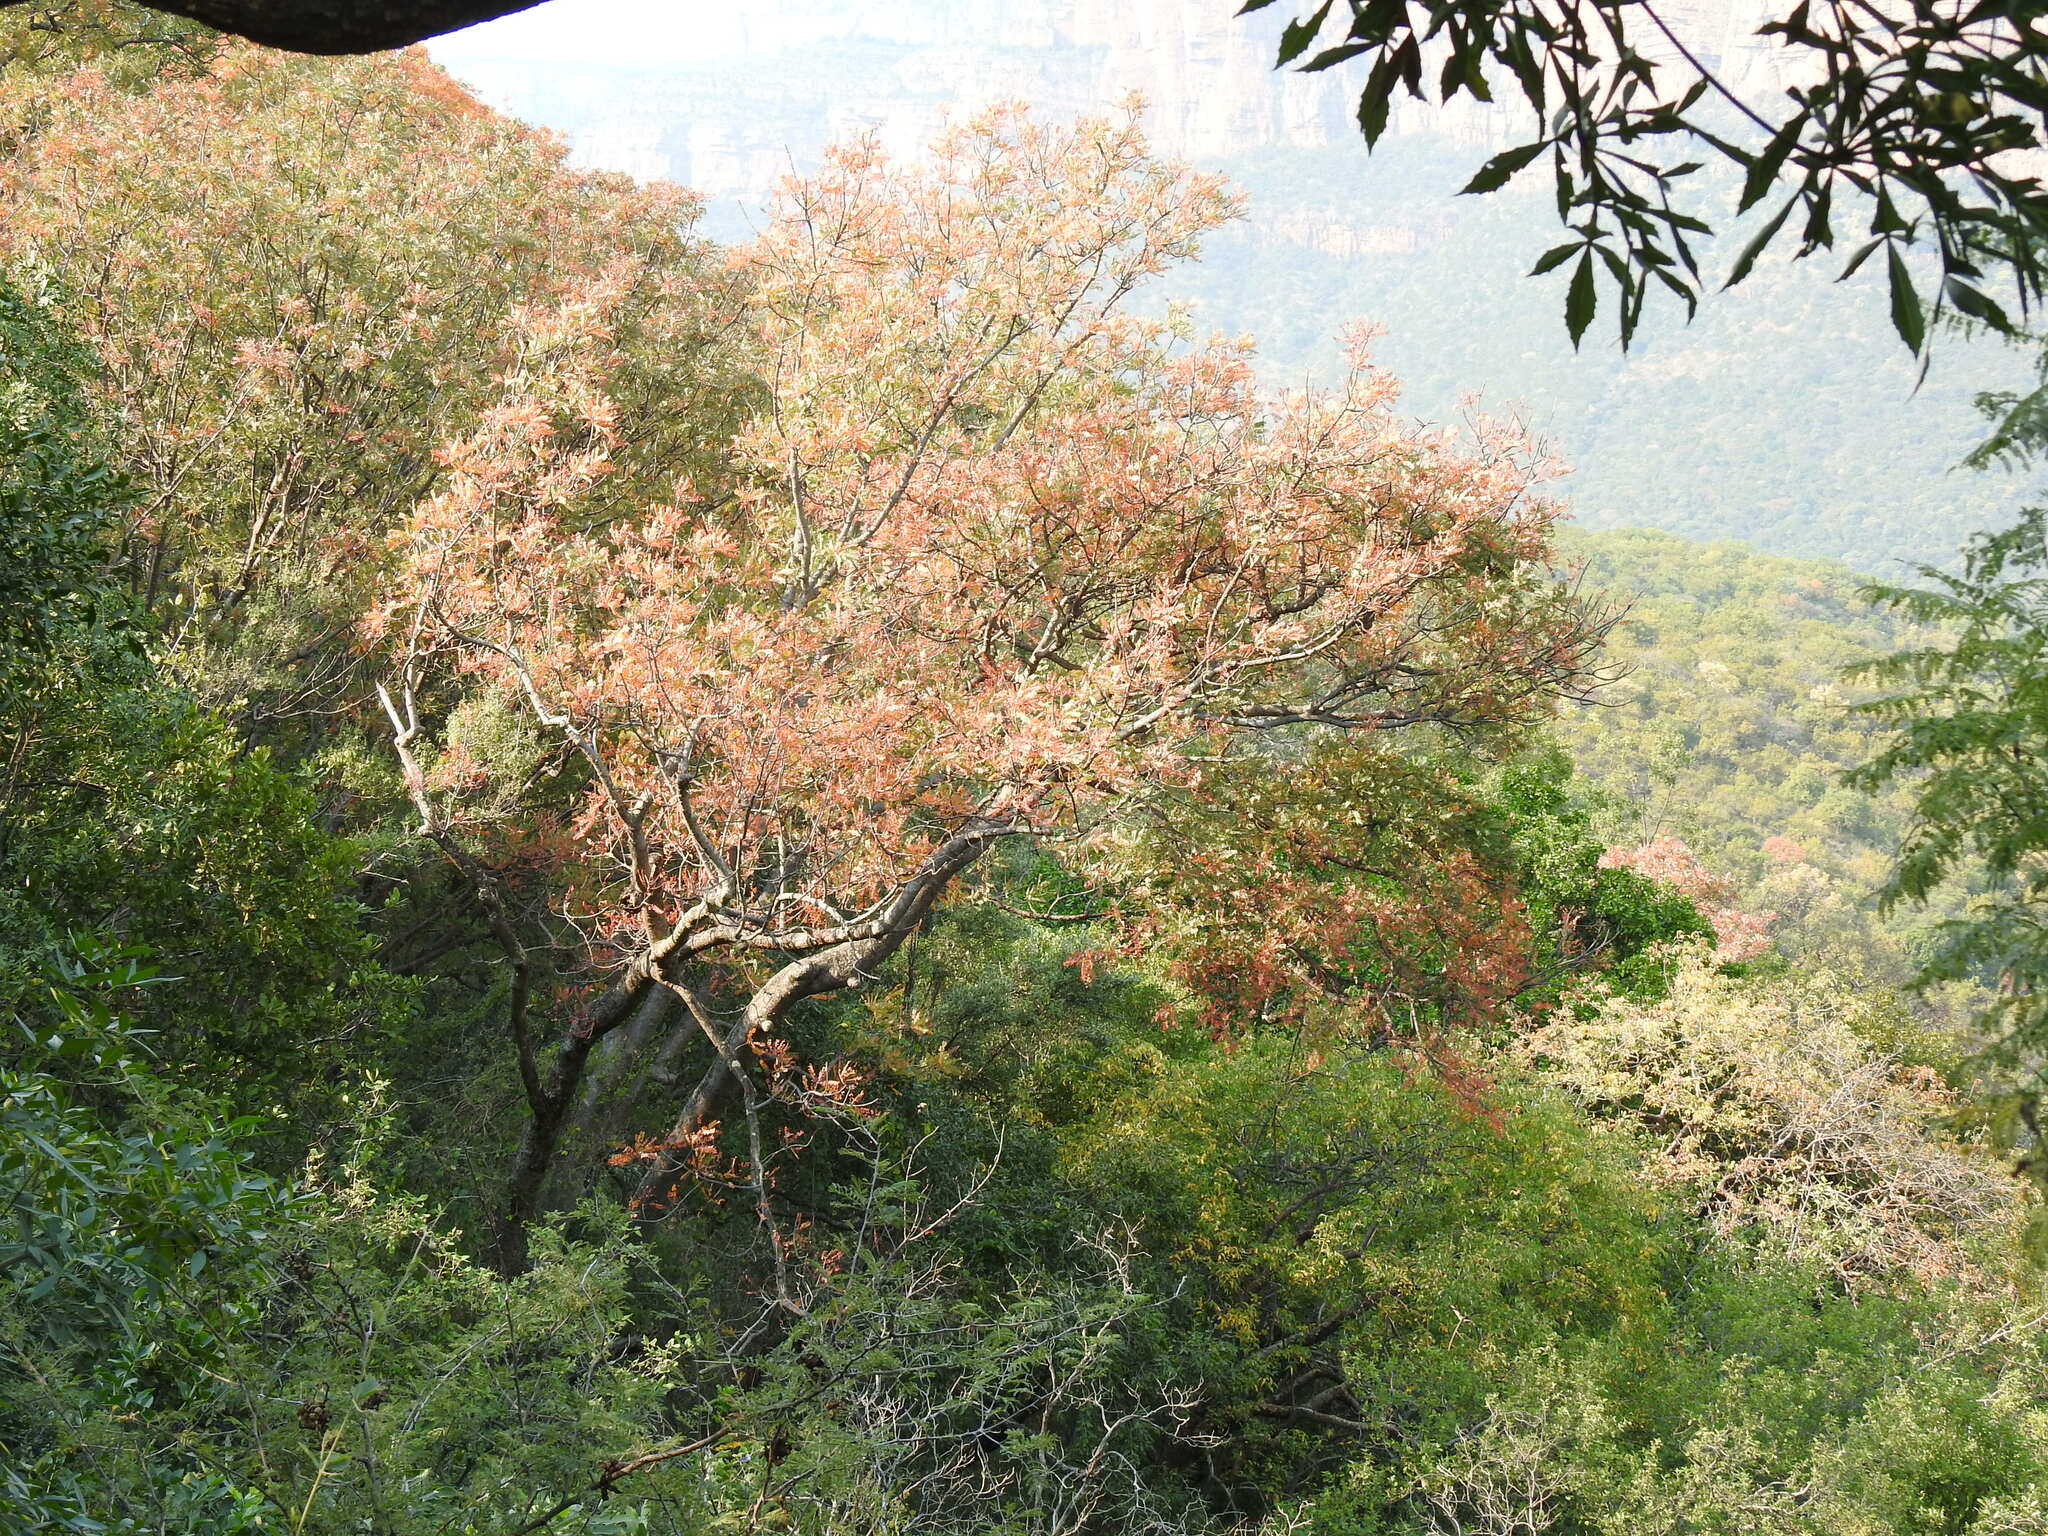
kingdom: Plantae
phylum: Tracheophyta
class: Magnoliopsida
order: Sapindales
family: Kirkiaceae
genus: Kirkia
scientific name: Kirkia wilmsii
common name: Mountain seringa
